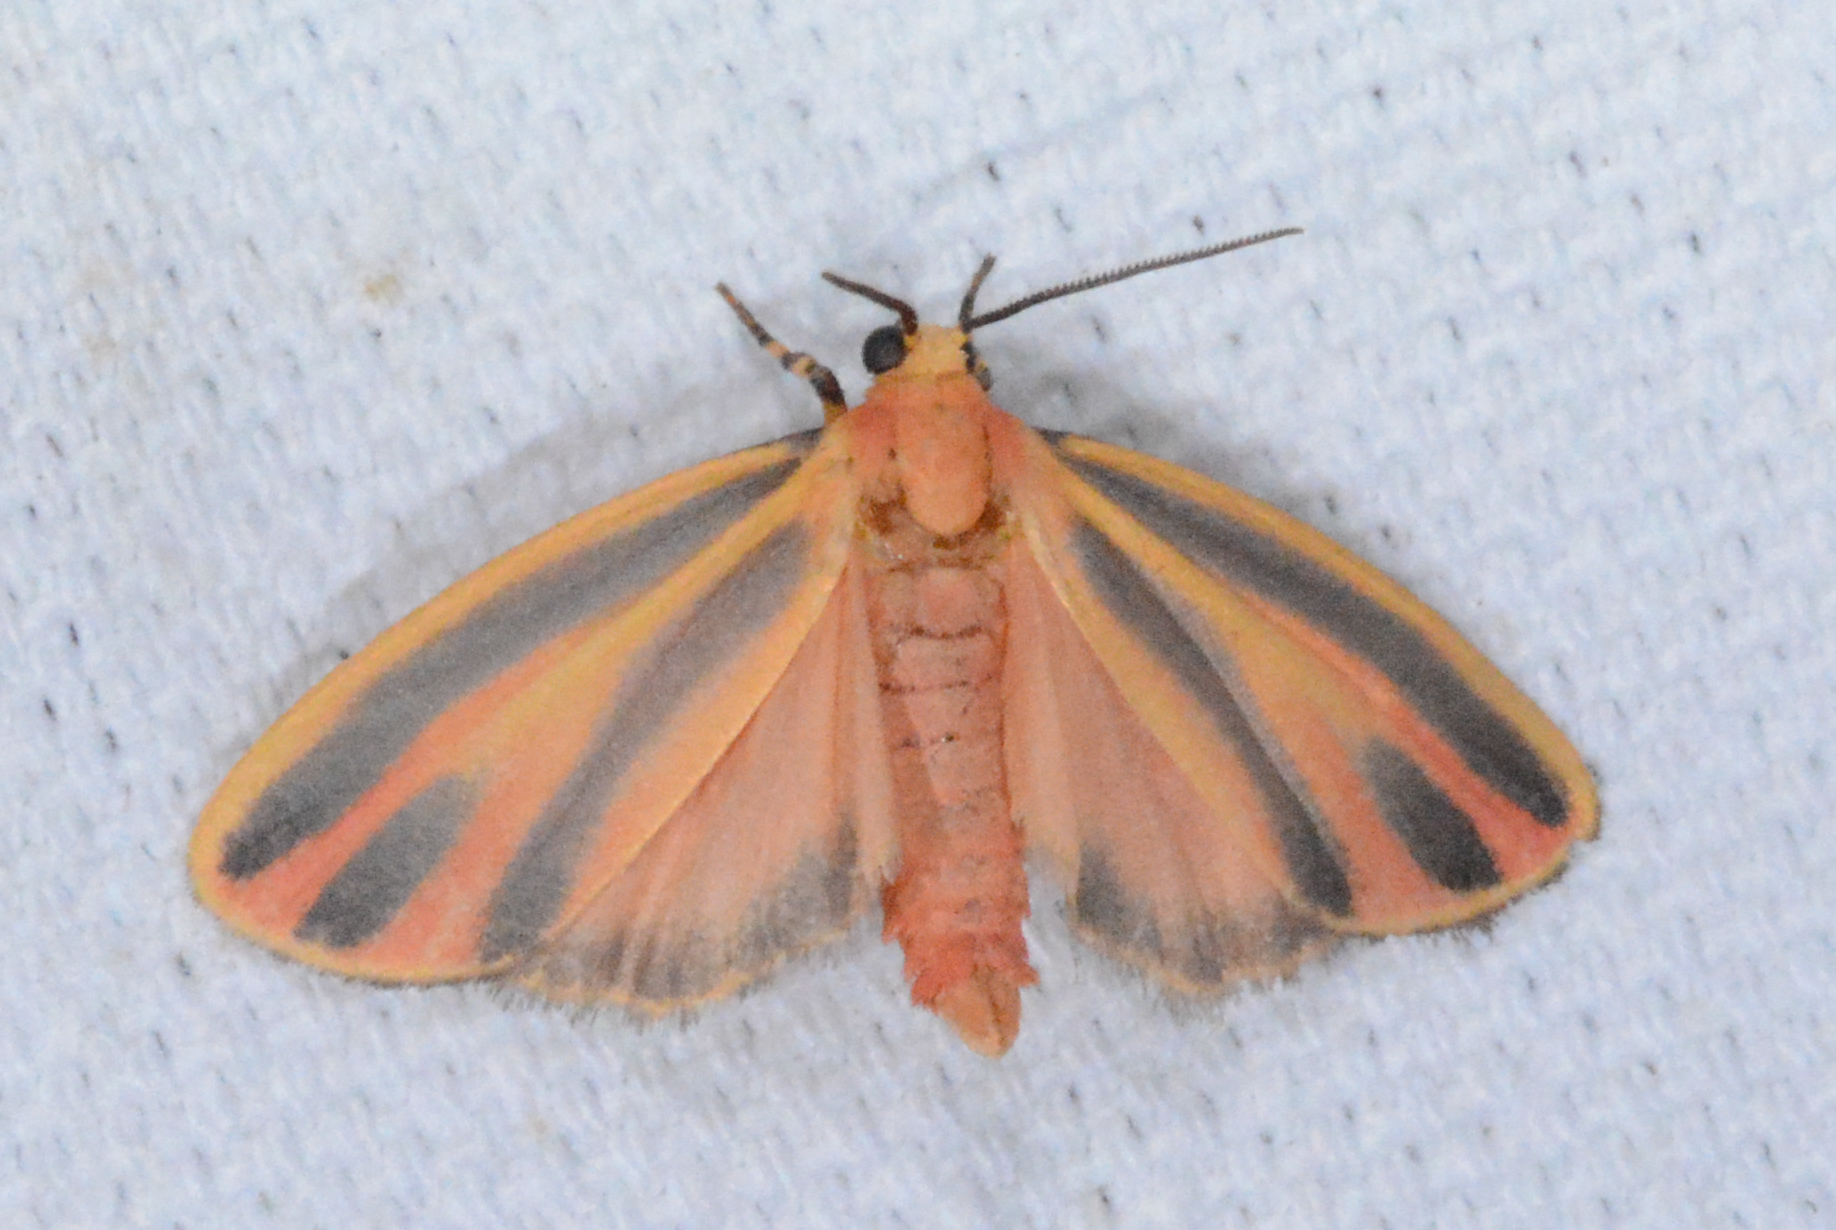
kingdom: Animalia
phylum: Arthropoda
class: Insecta
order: Lepidoptera
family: Erebidae
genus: Hypoprepia
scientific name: Hypoprepia fucosa
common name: Painted lichen moth
